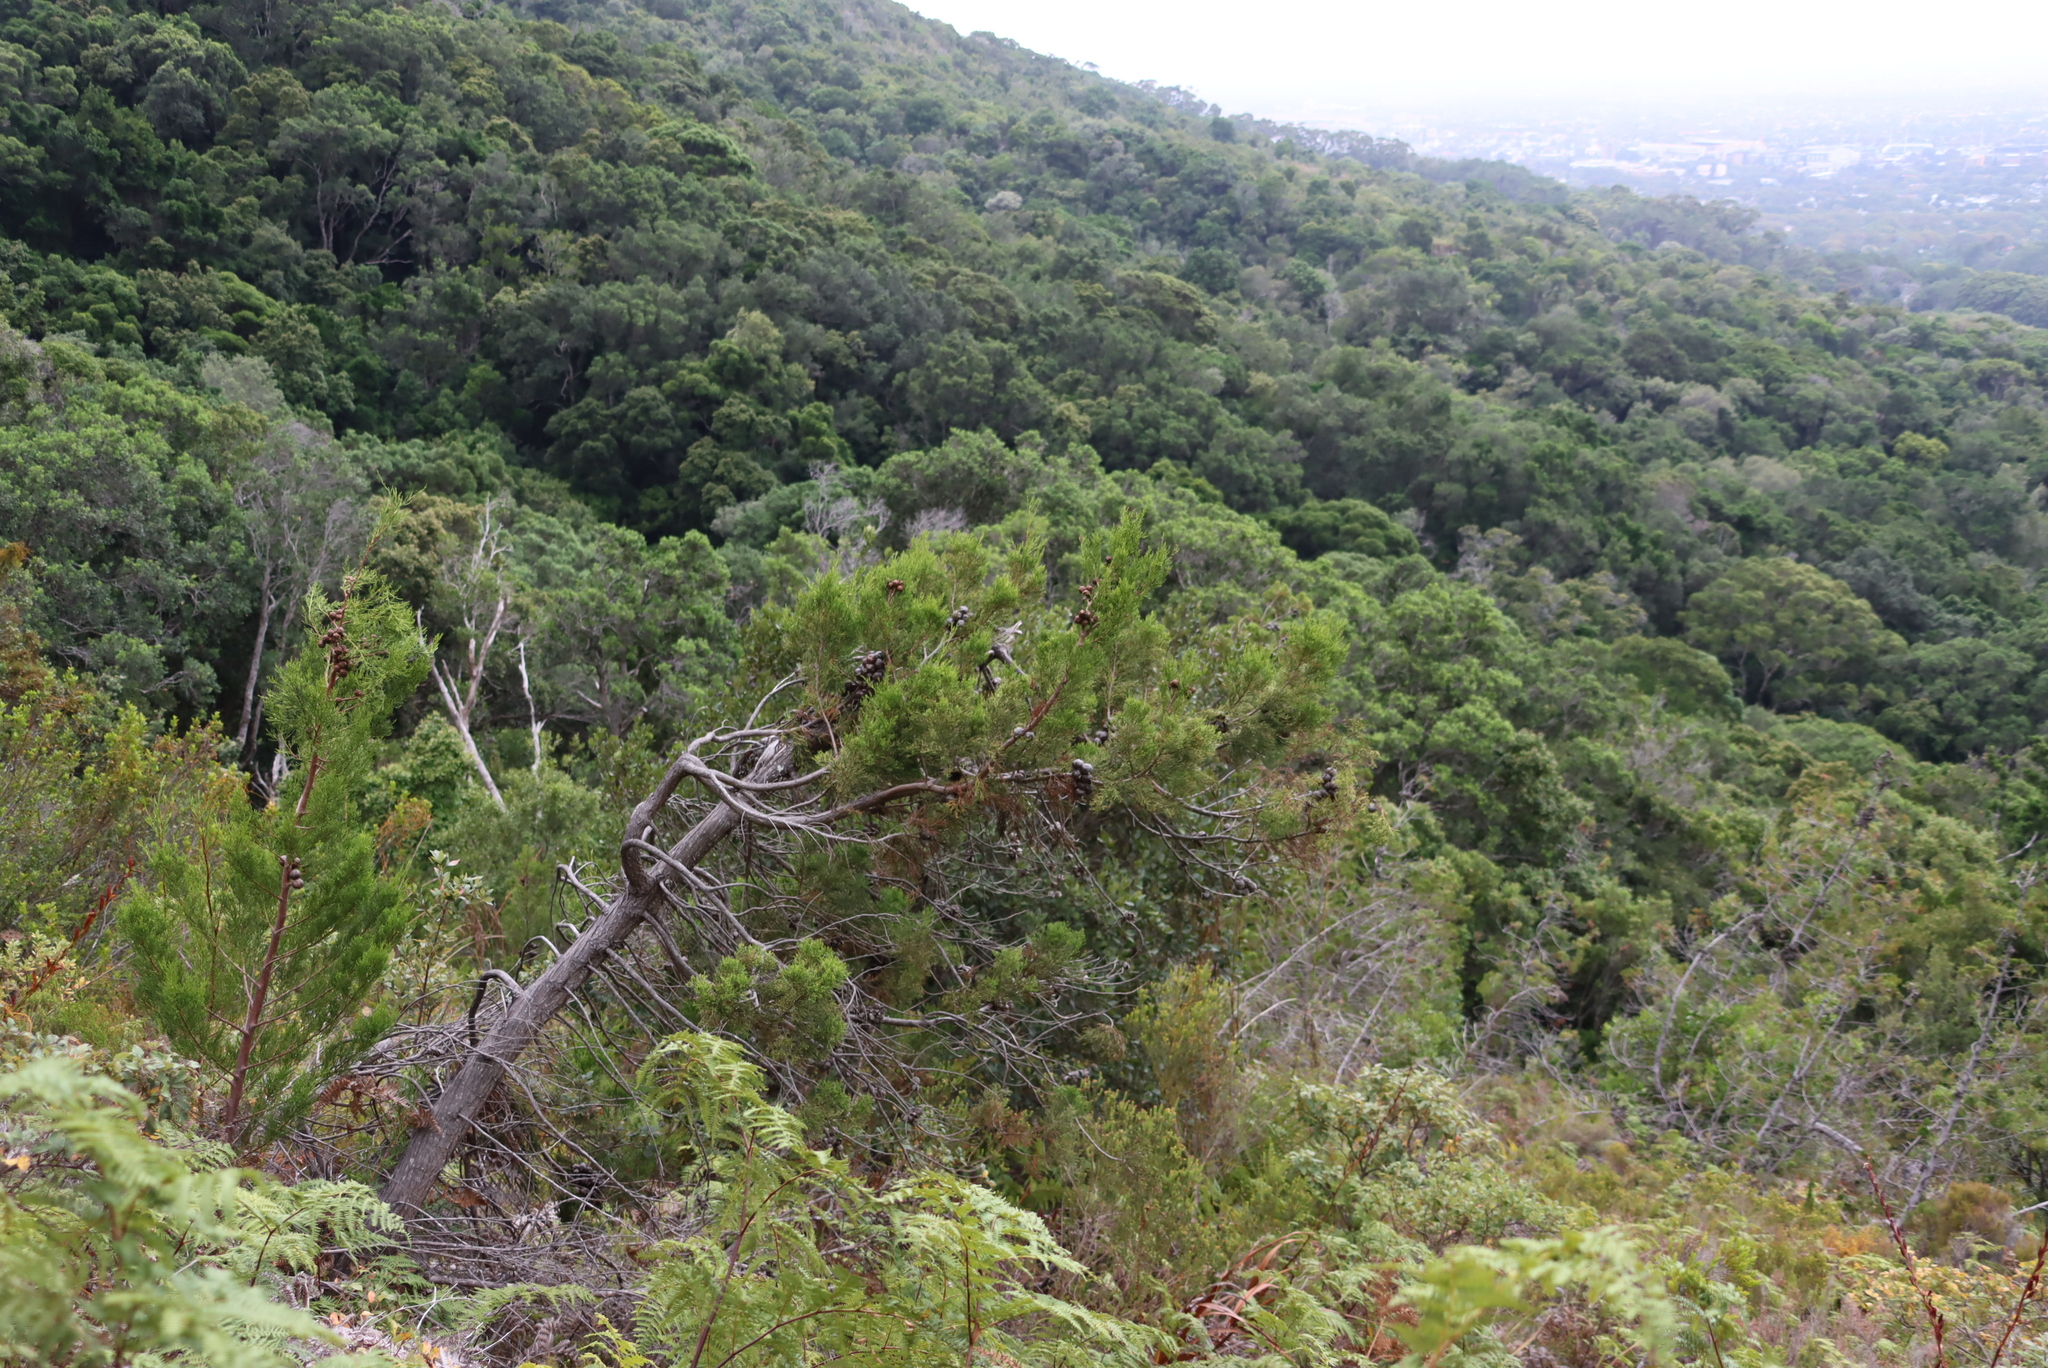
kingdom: Plantae
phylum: Tracheophyta
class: Pinopsida
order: Pinales
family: Cupressaceae
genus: Widdringtonia
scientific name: Widdringtonia nodiflora
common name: Cape cypress
